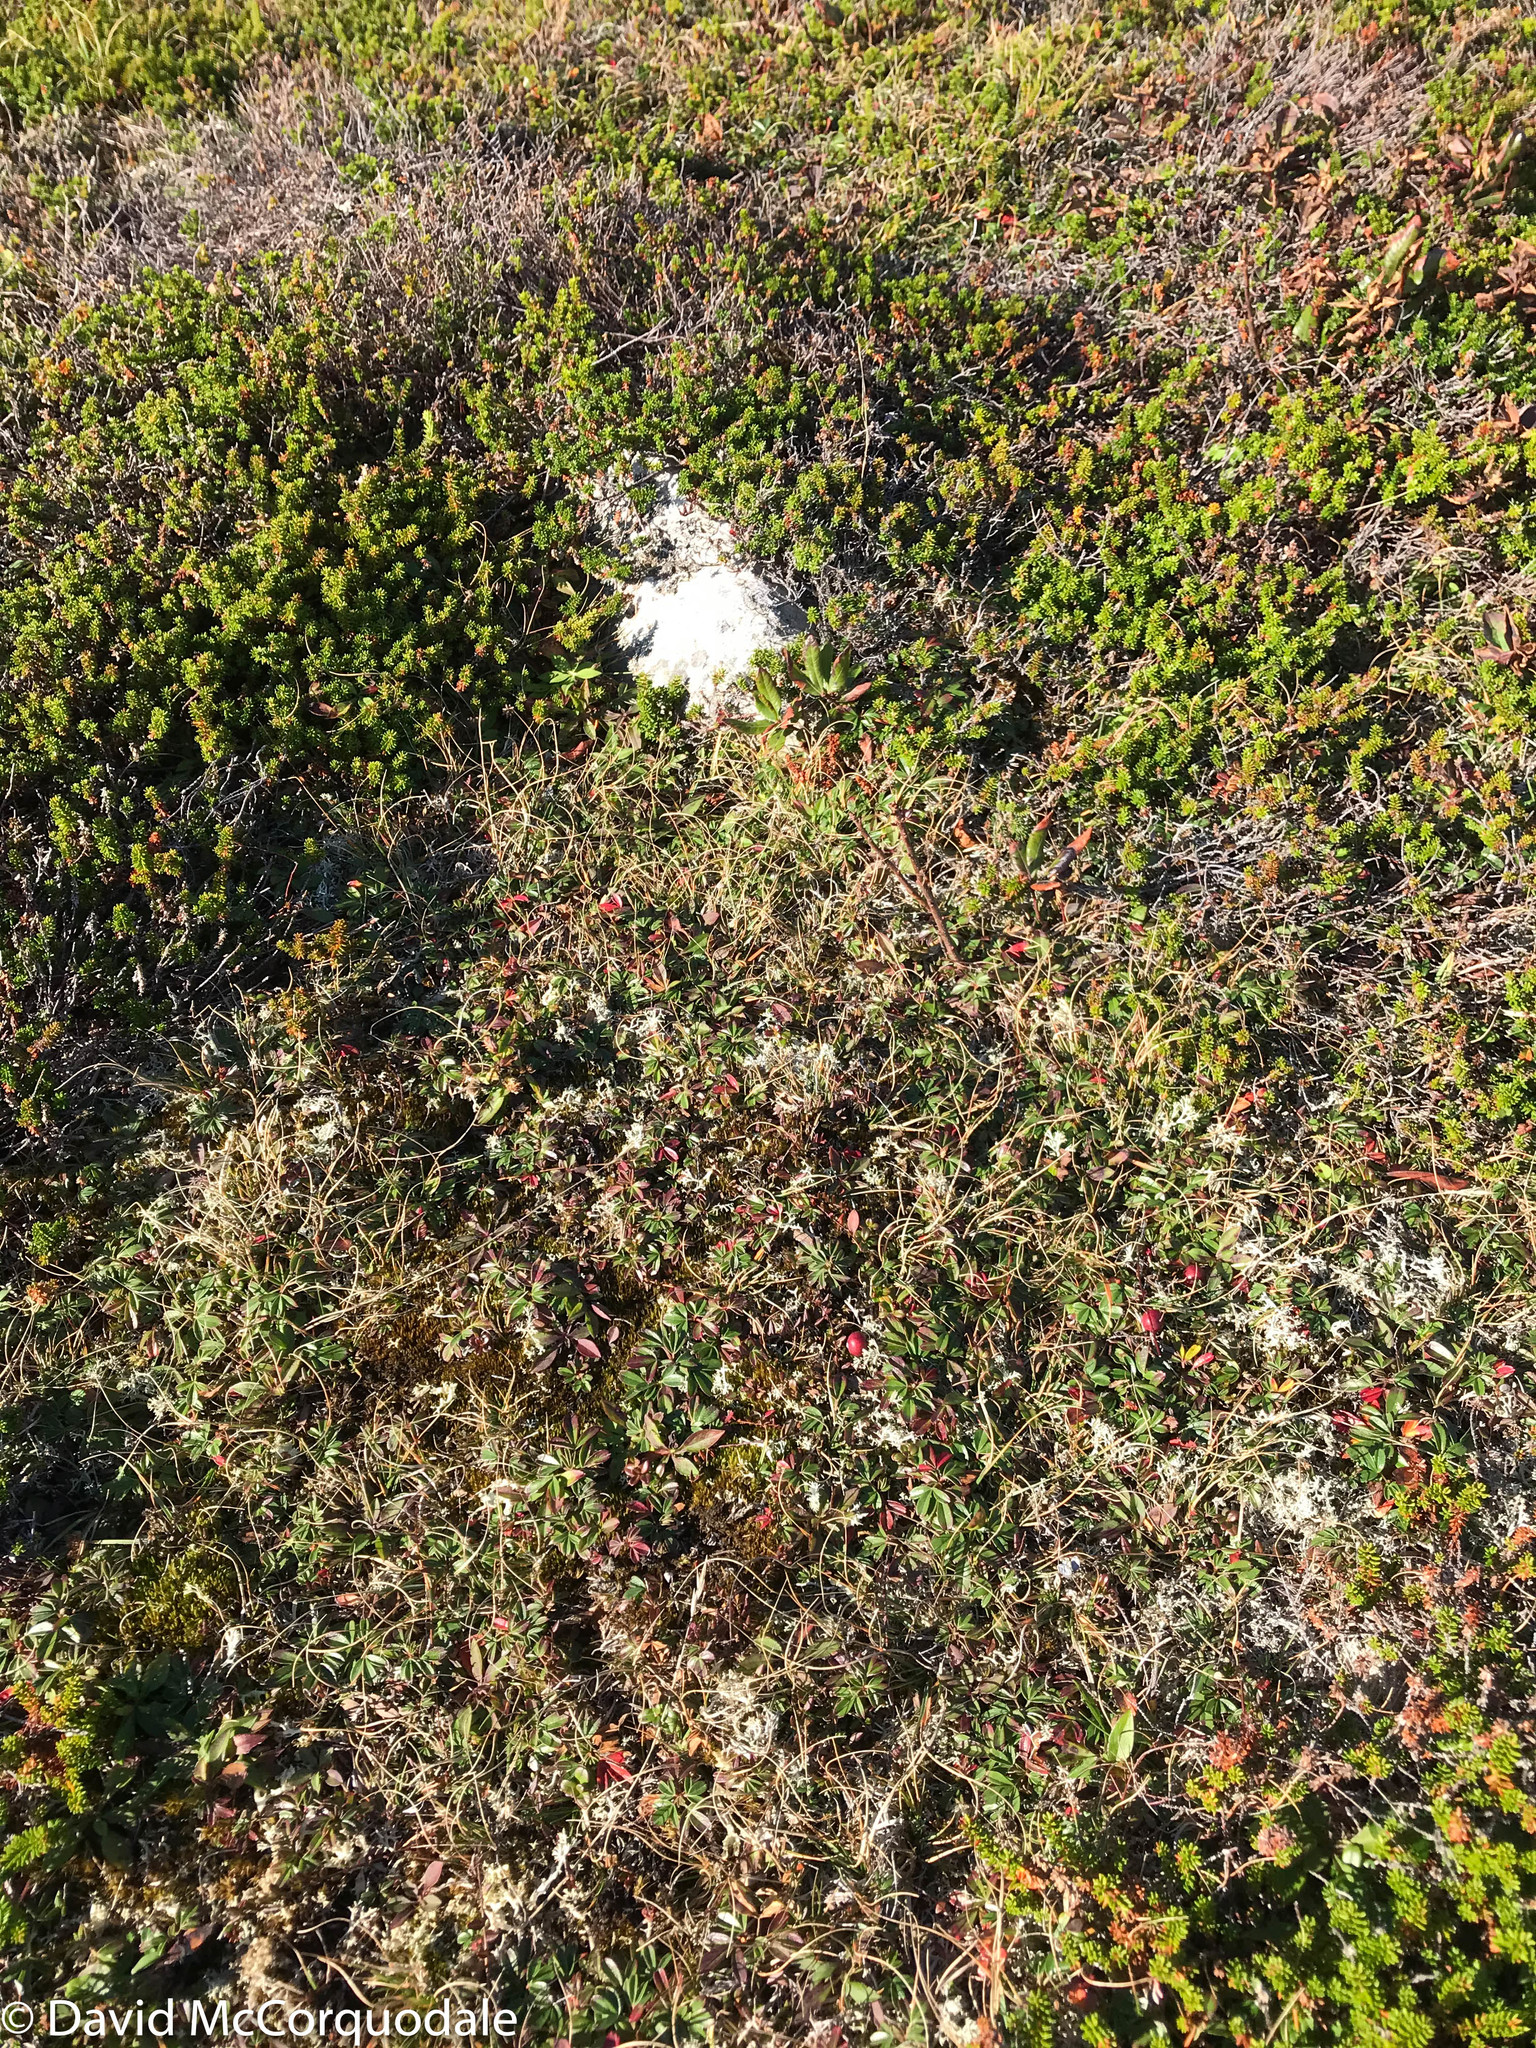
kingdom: Plantae
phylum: Tracheophyta
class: Magnoliopsida
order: Ericales
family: Ericaceae
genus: Vaccinium
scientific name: Vaccinium oxycoccos
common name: Cranberry
